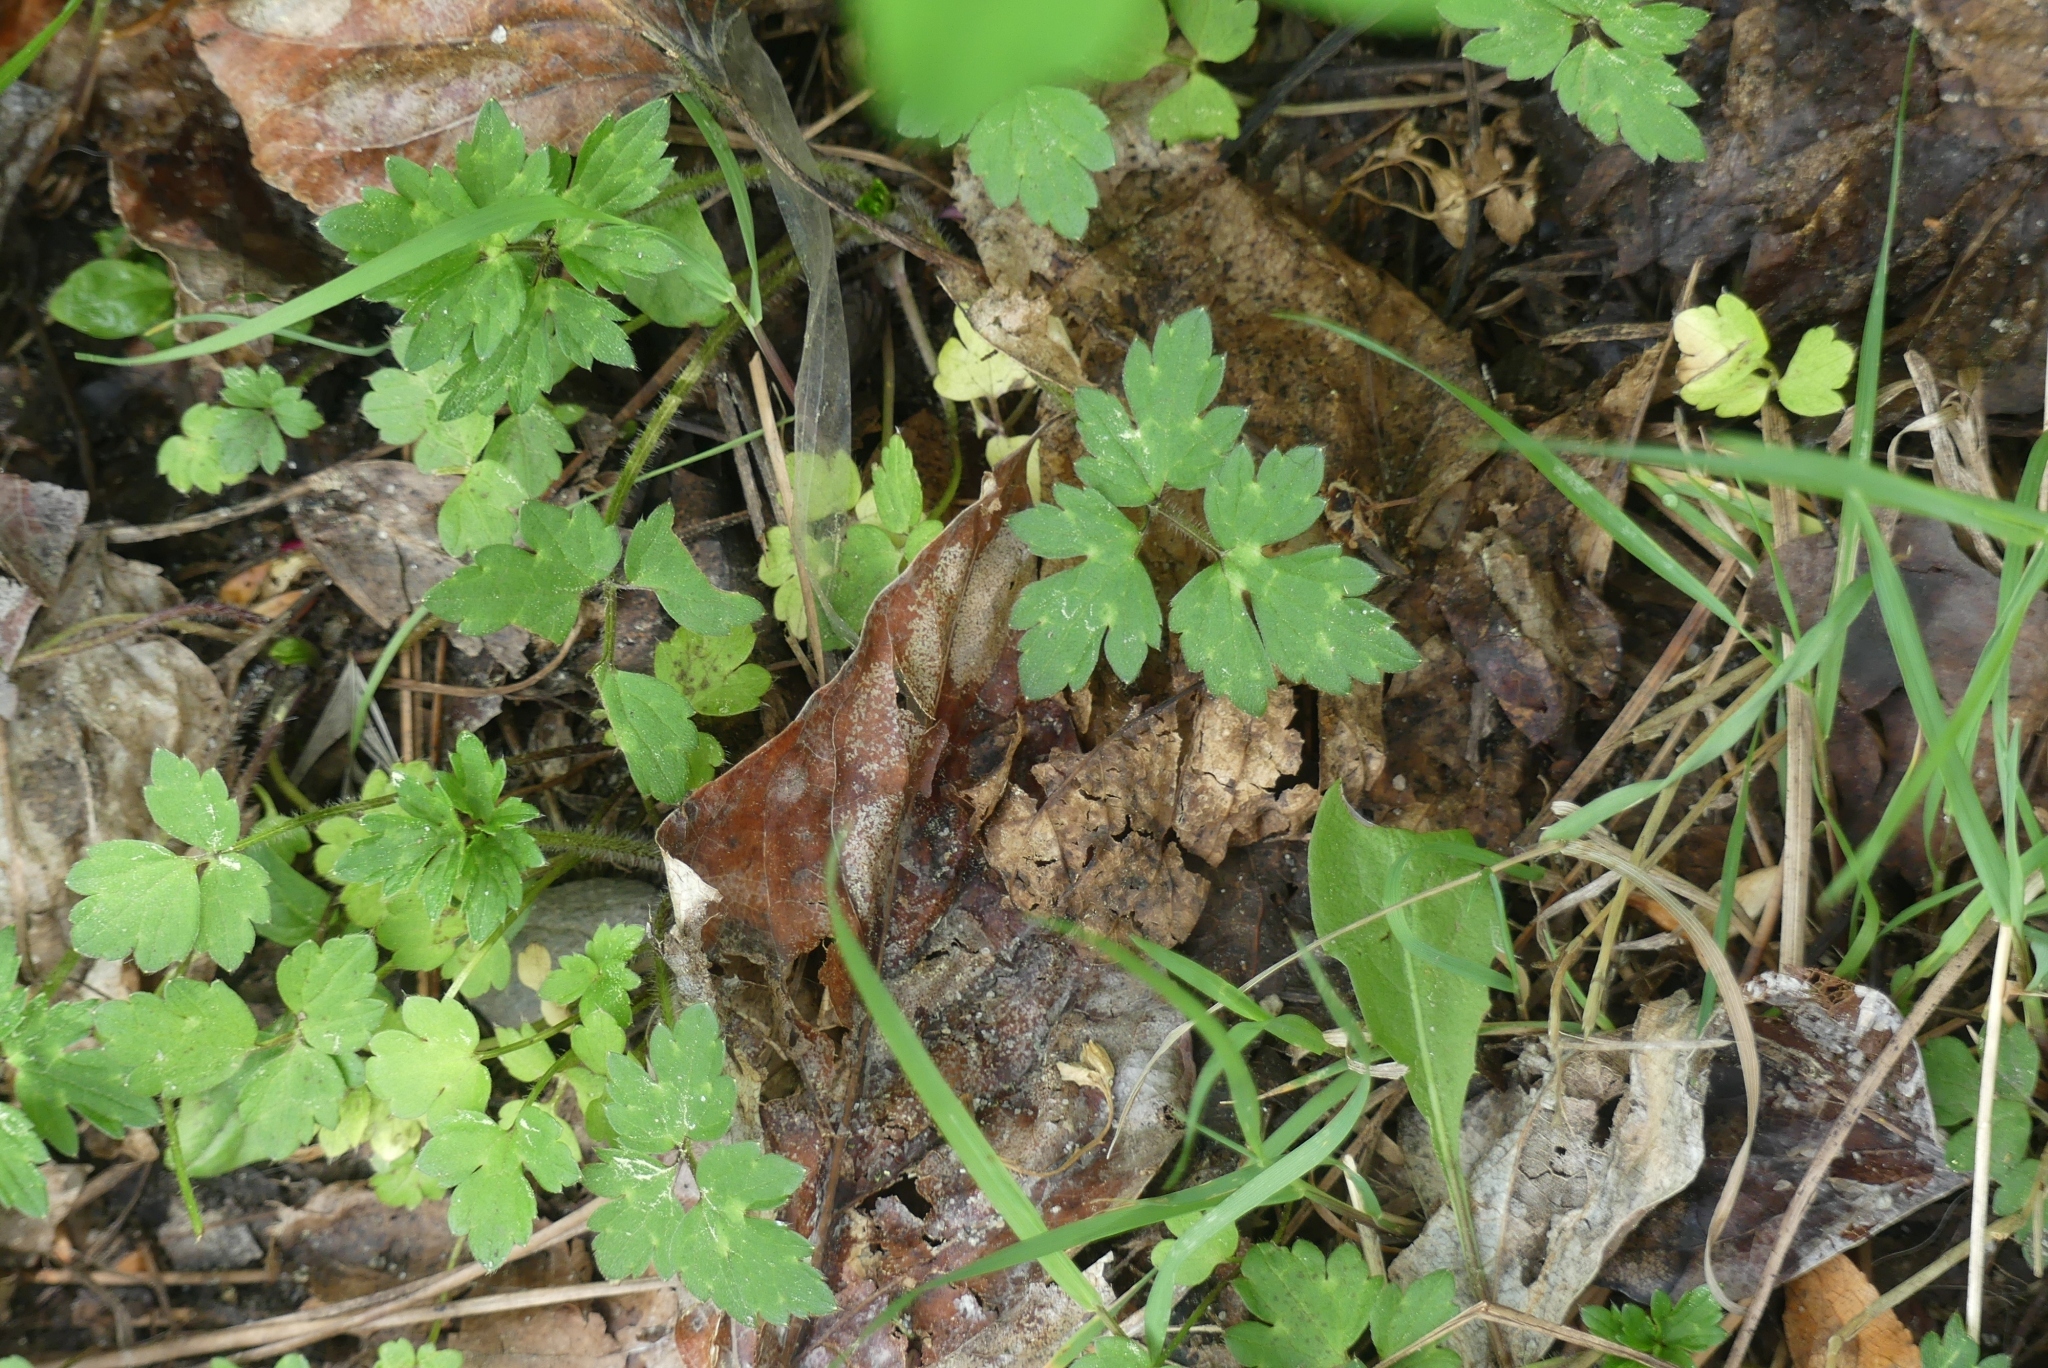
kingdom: Plantae
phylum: Tracheophyta
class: Magnoliopsida
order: Ranunculales
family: Ranunculaceae
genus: Ranunculus
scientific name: Ranunculus repens
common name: Creeping buttercup
